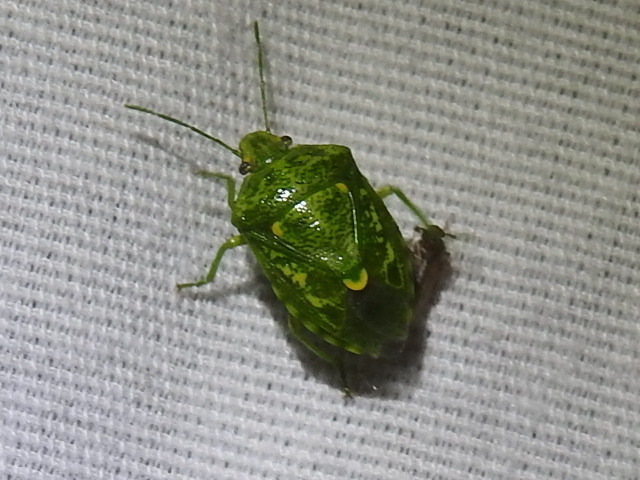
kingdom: Animalia
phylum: Arthropoda
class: Insecta
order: Hemiptera
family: Pentatomidae
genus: Banasa
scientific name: Banasa euchlora
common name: Cedar berry bug
